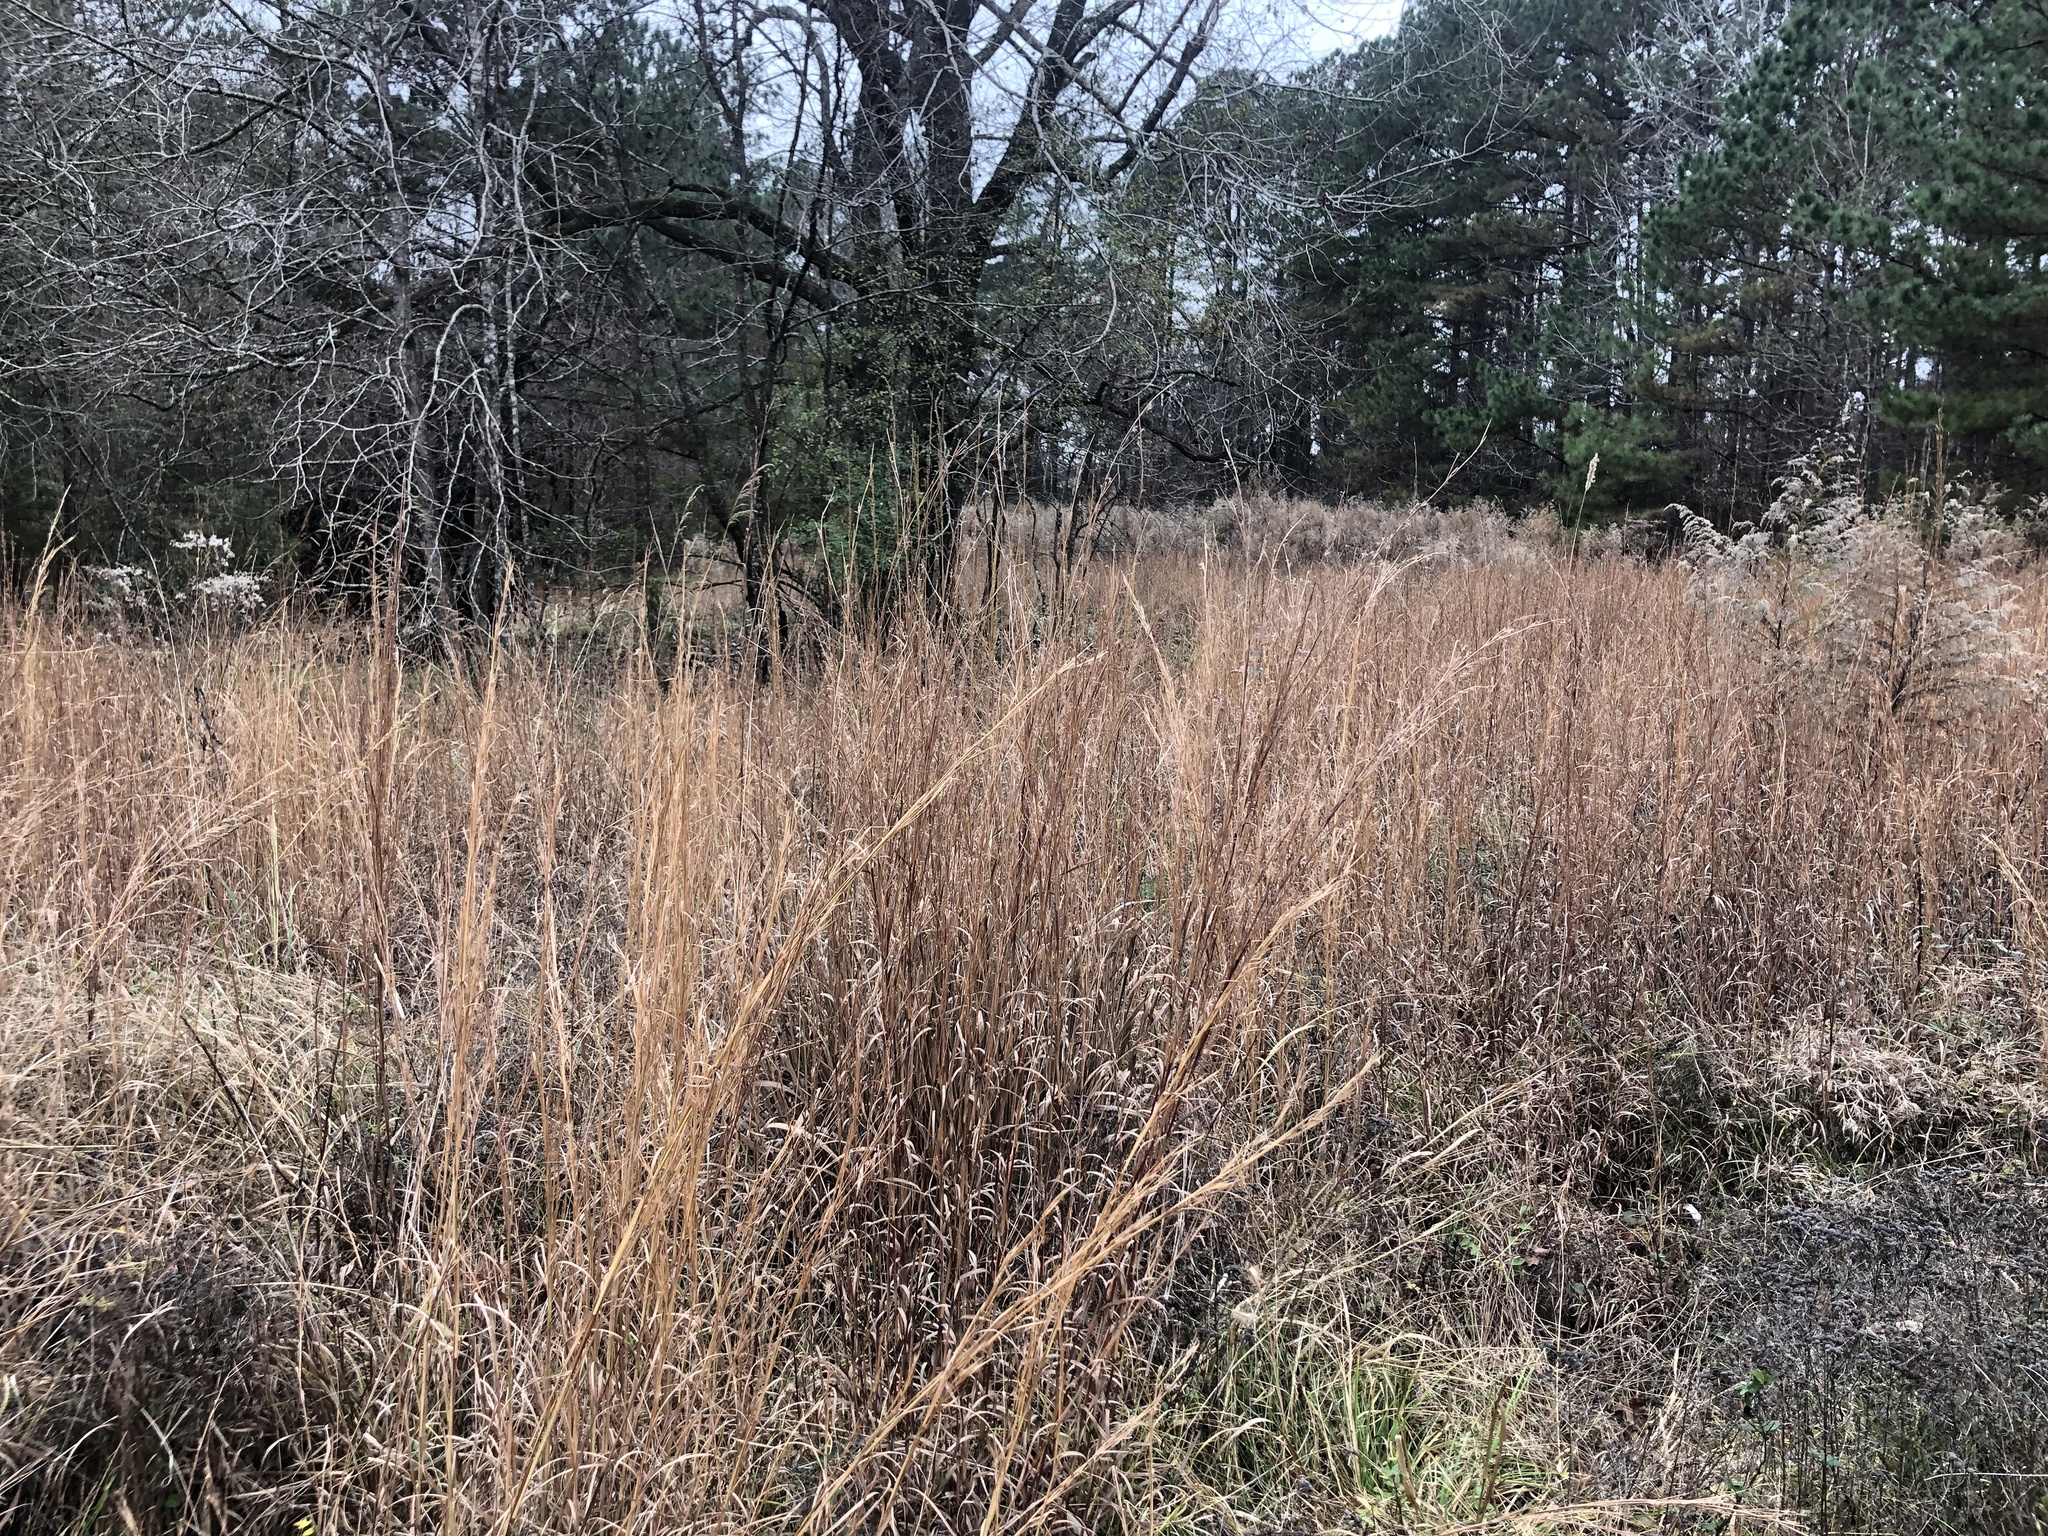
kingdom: Plantae
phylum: Tracheophyta
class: Liliopsida
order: Poales
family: Poaceae
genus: Schizachyrium
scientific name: Schizachyrium scoparium
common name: Little bluestem
